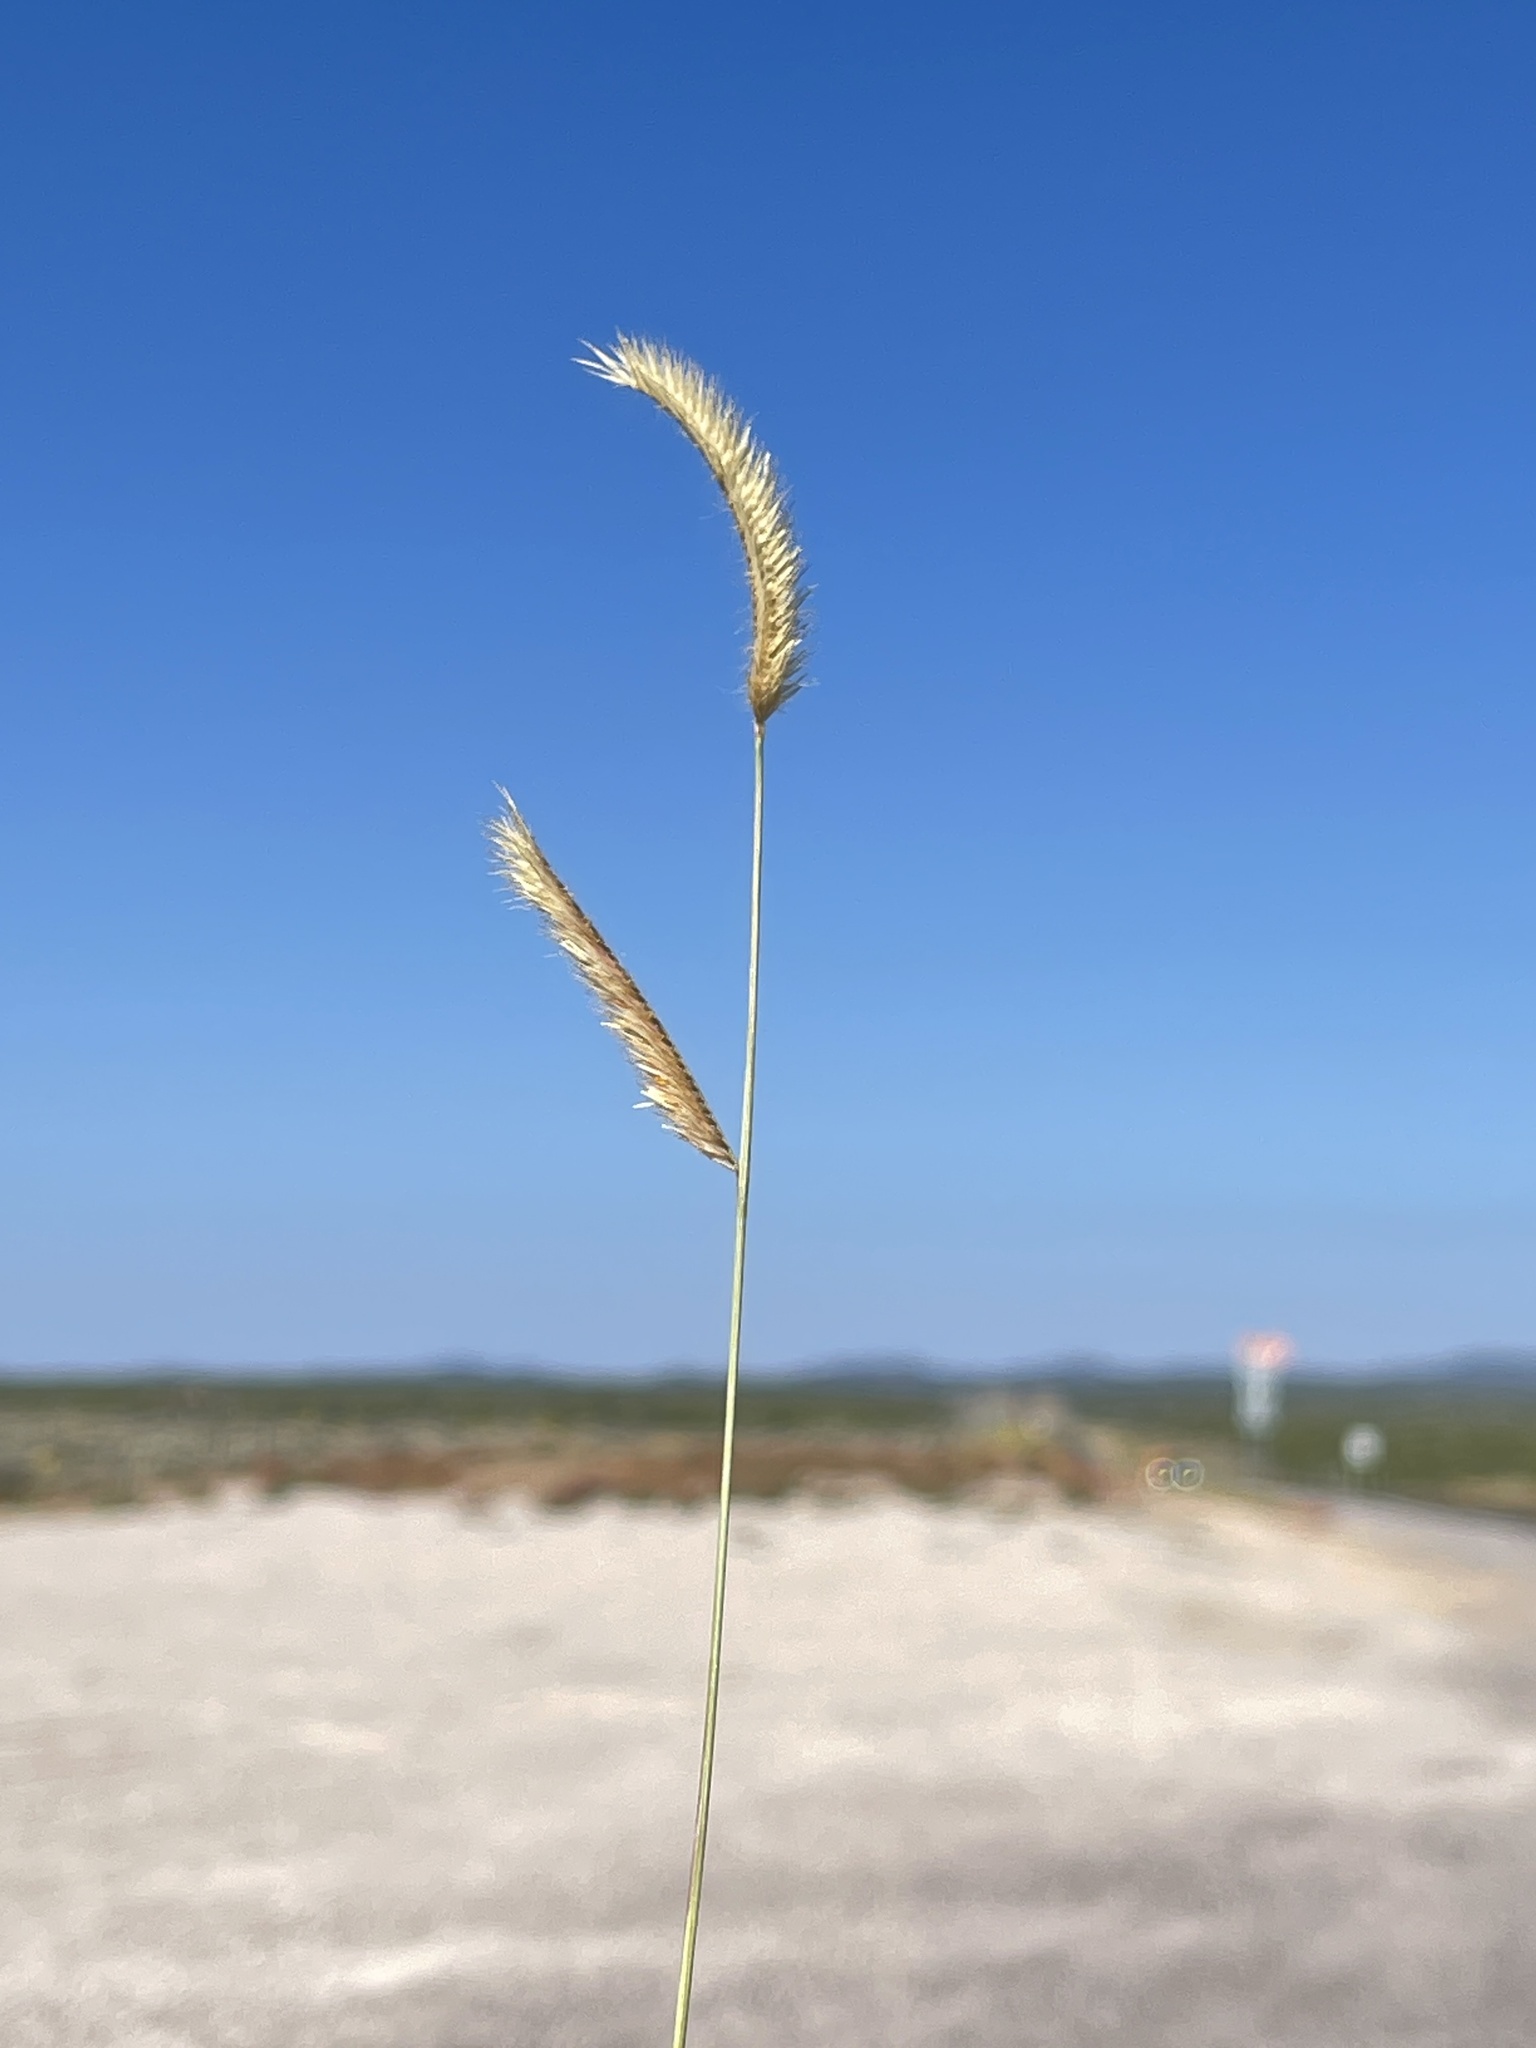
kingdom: Plantae
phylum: Tracheophyta
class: Liliopsida
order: Poales
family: Poaceae
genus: Bouteloua
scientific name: Bouteloua gracilis
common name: Blue grama
